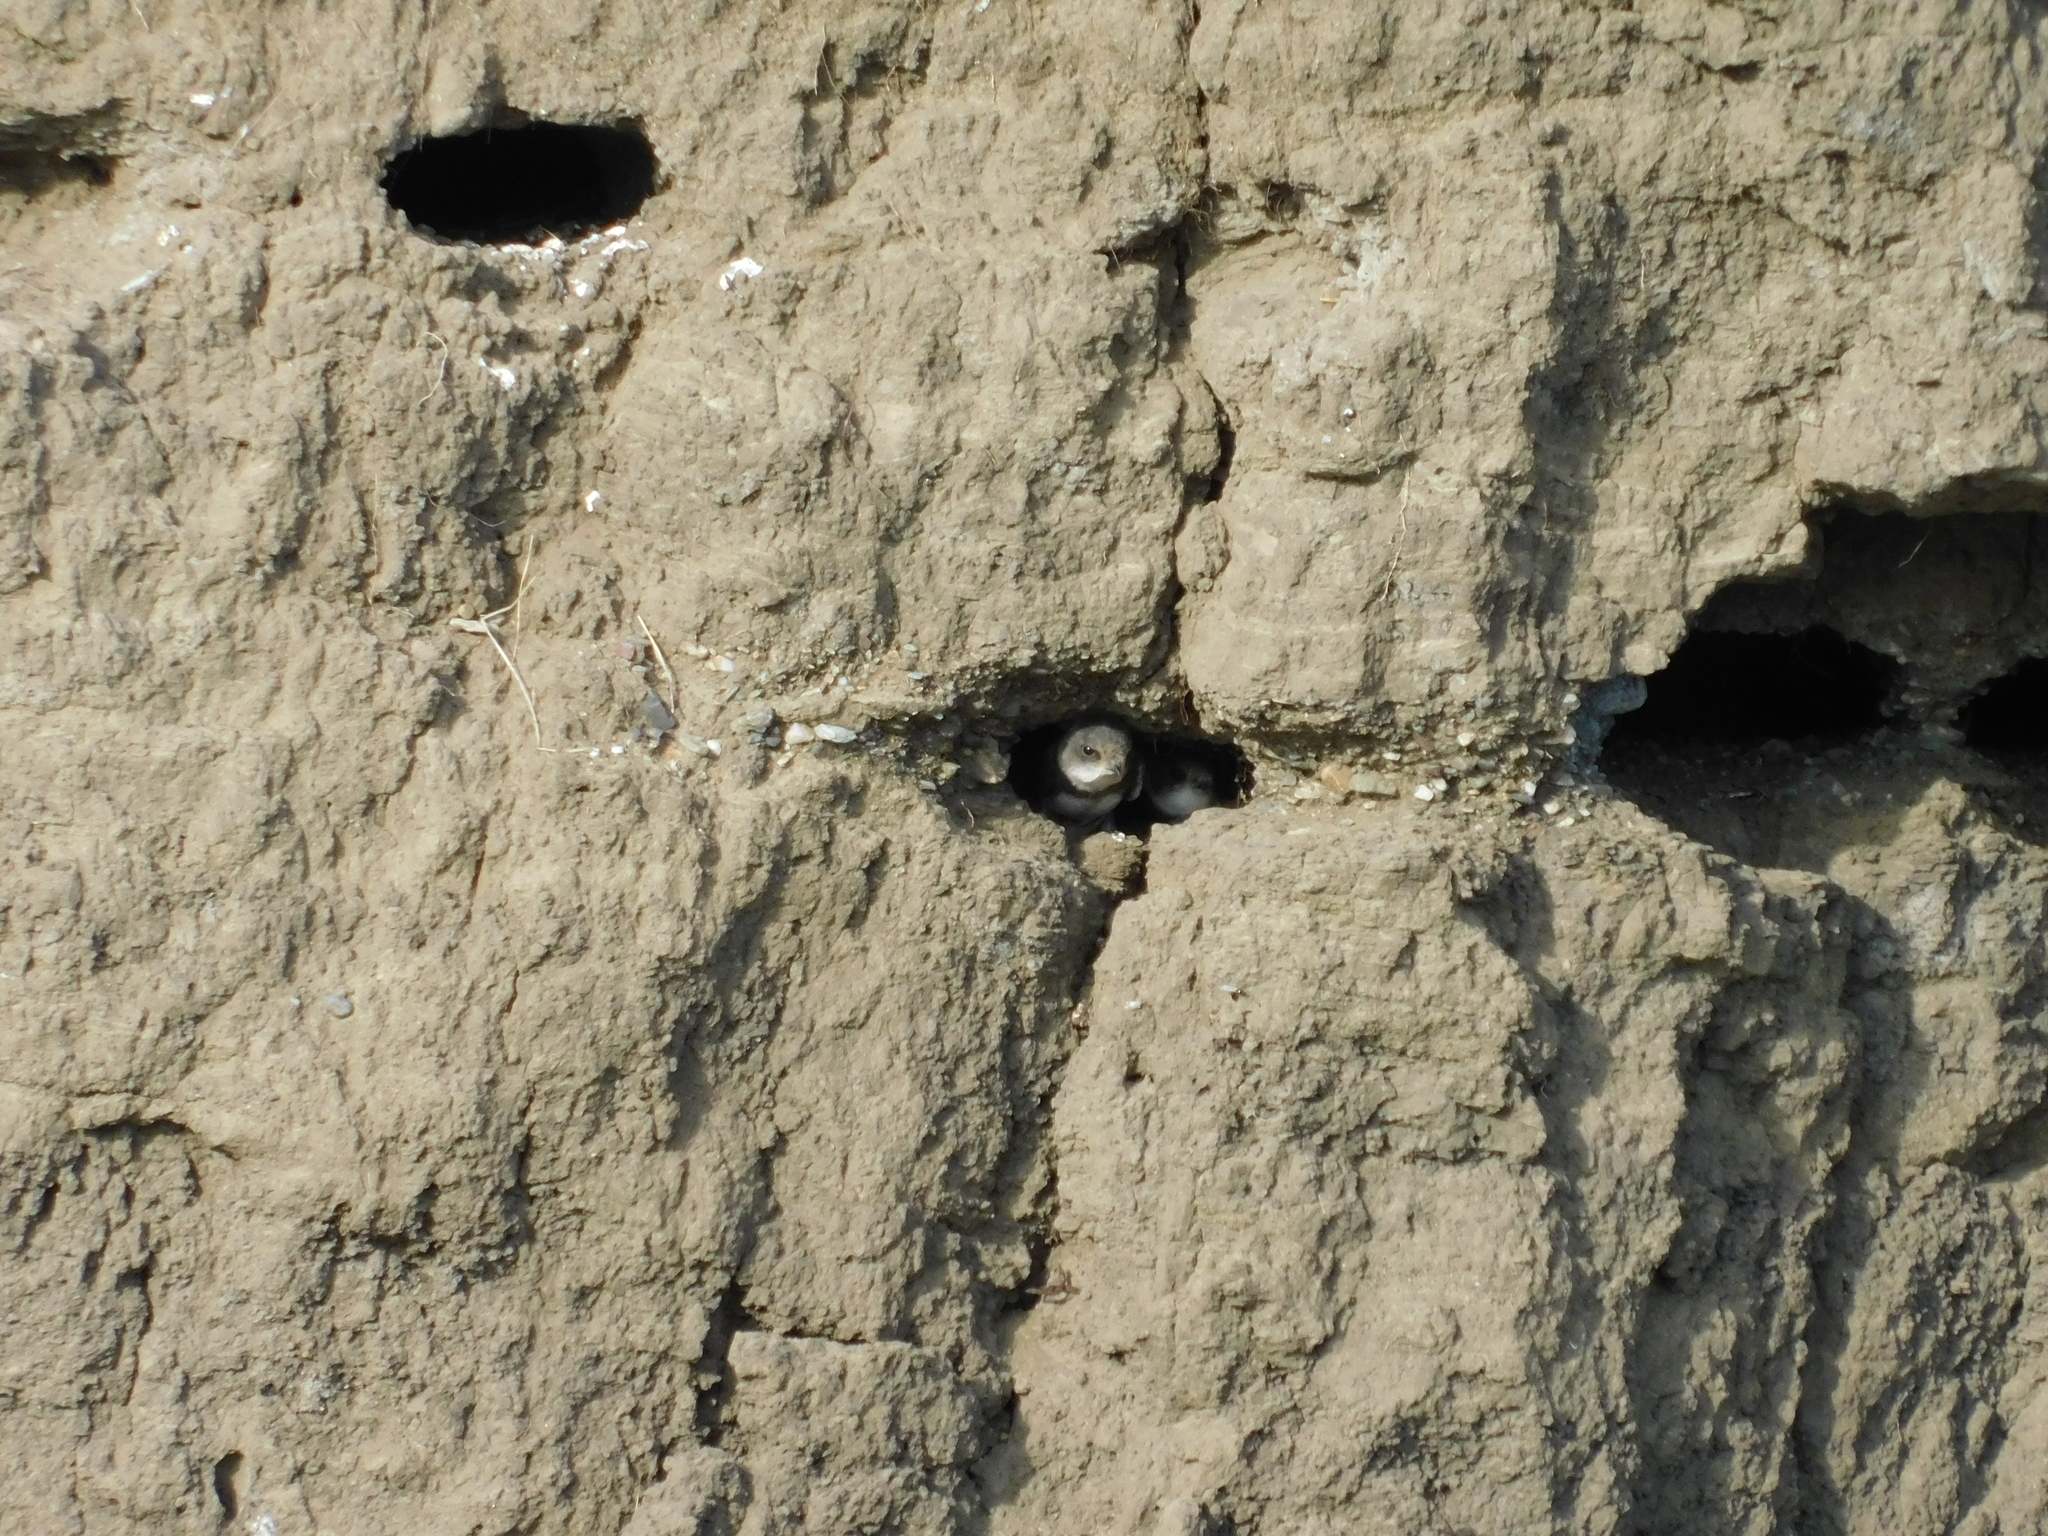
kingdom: Animalia
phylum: Chordata
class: Aves
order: Passeriformes
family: Hirundinidae
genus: Riparia
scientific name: Riparia riparia
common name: Sand martin
